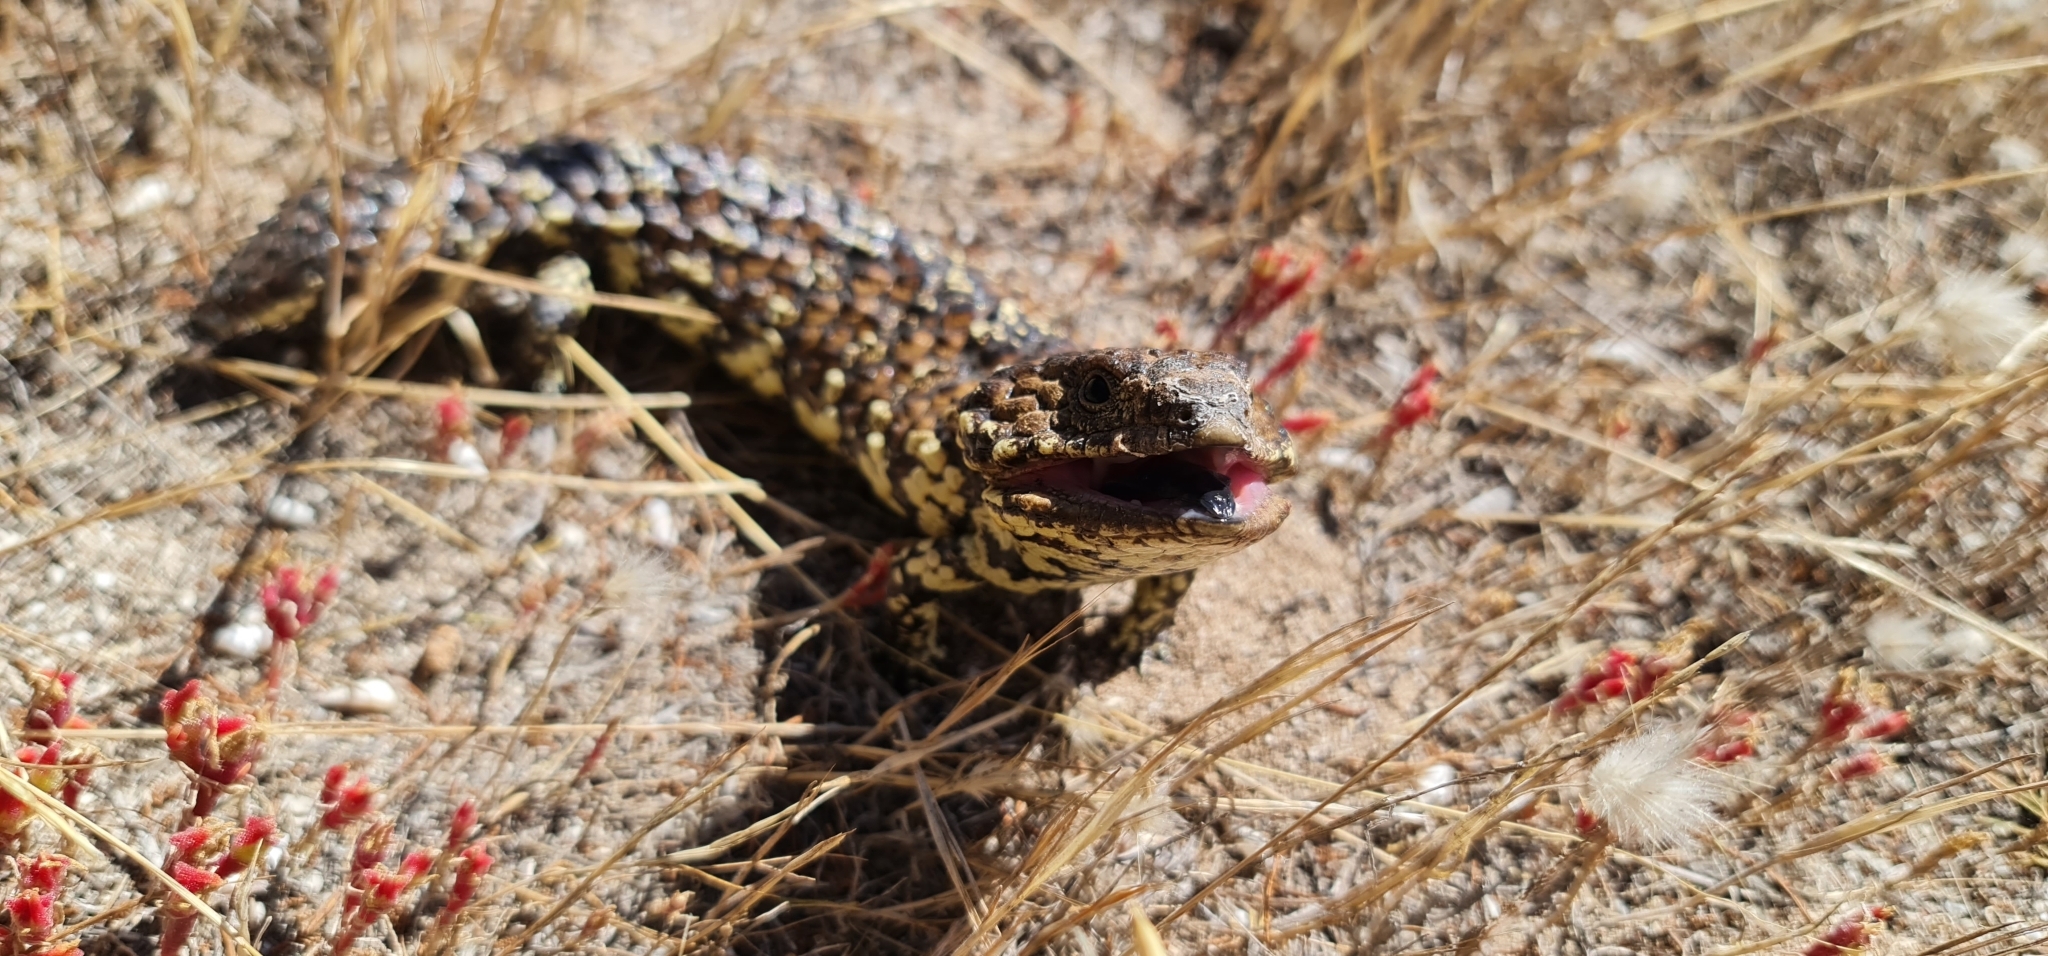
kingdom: Animalia
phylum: Chordata
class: Squamata
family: Scincidae
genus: Tiliqua
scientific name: Tiliqua rugosa
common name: Pinecone lizard
